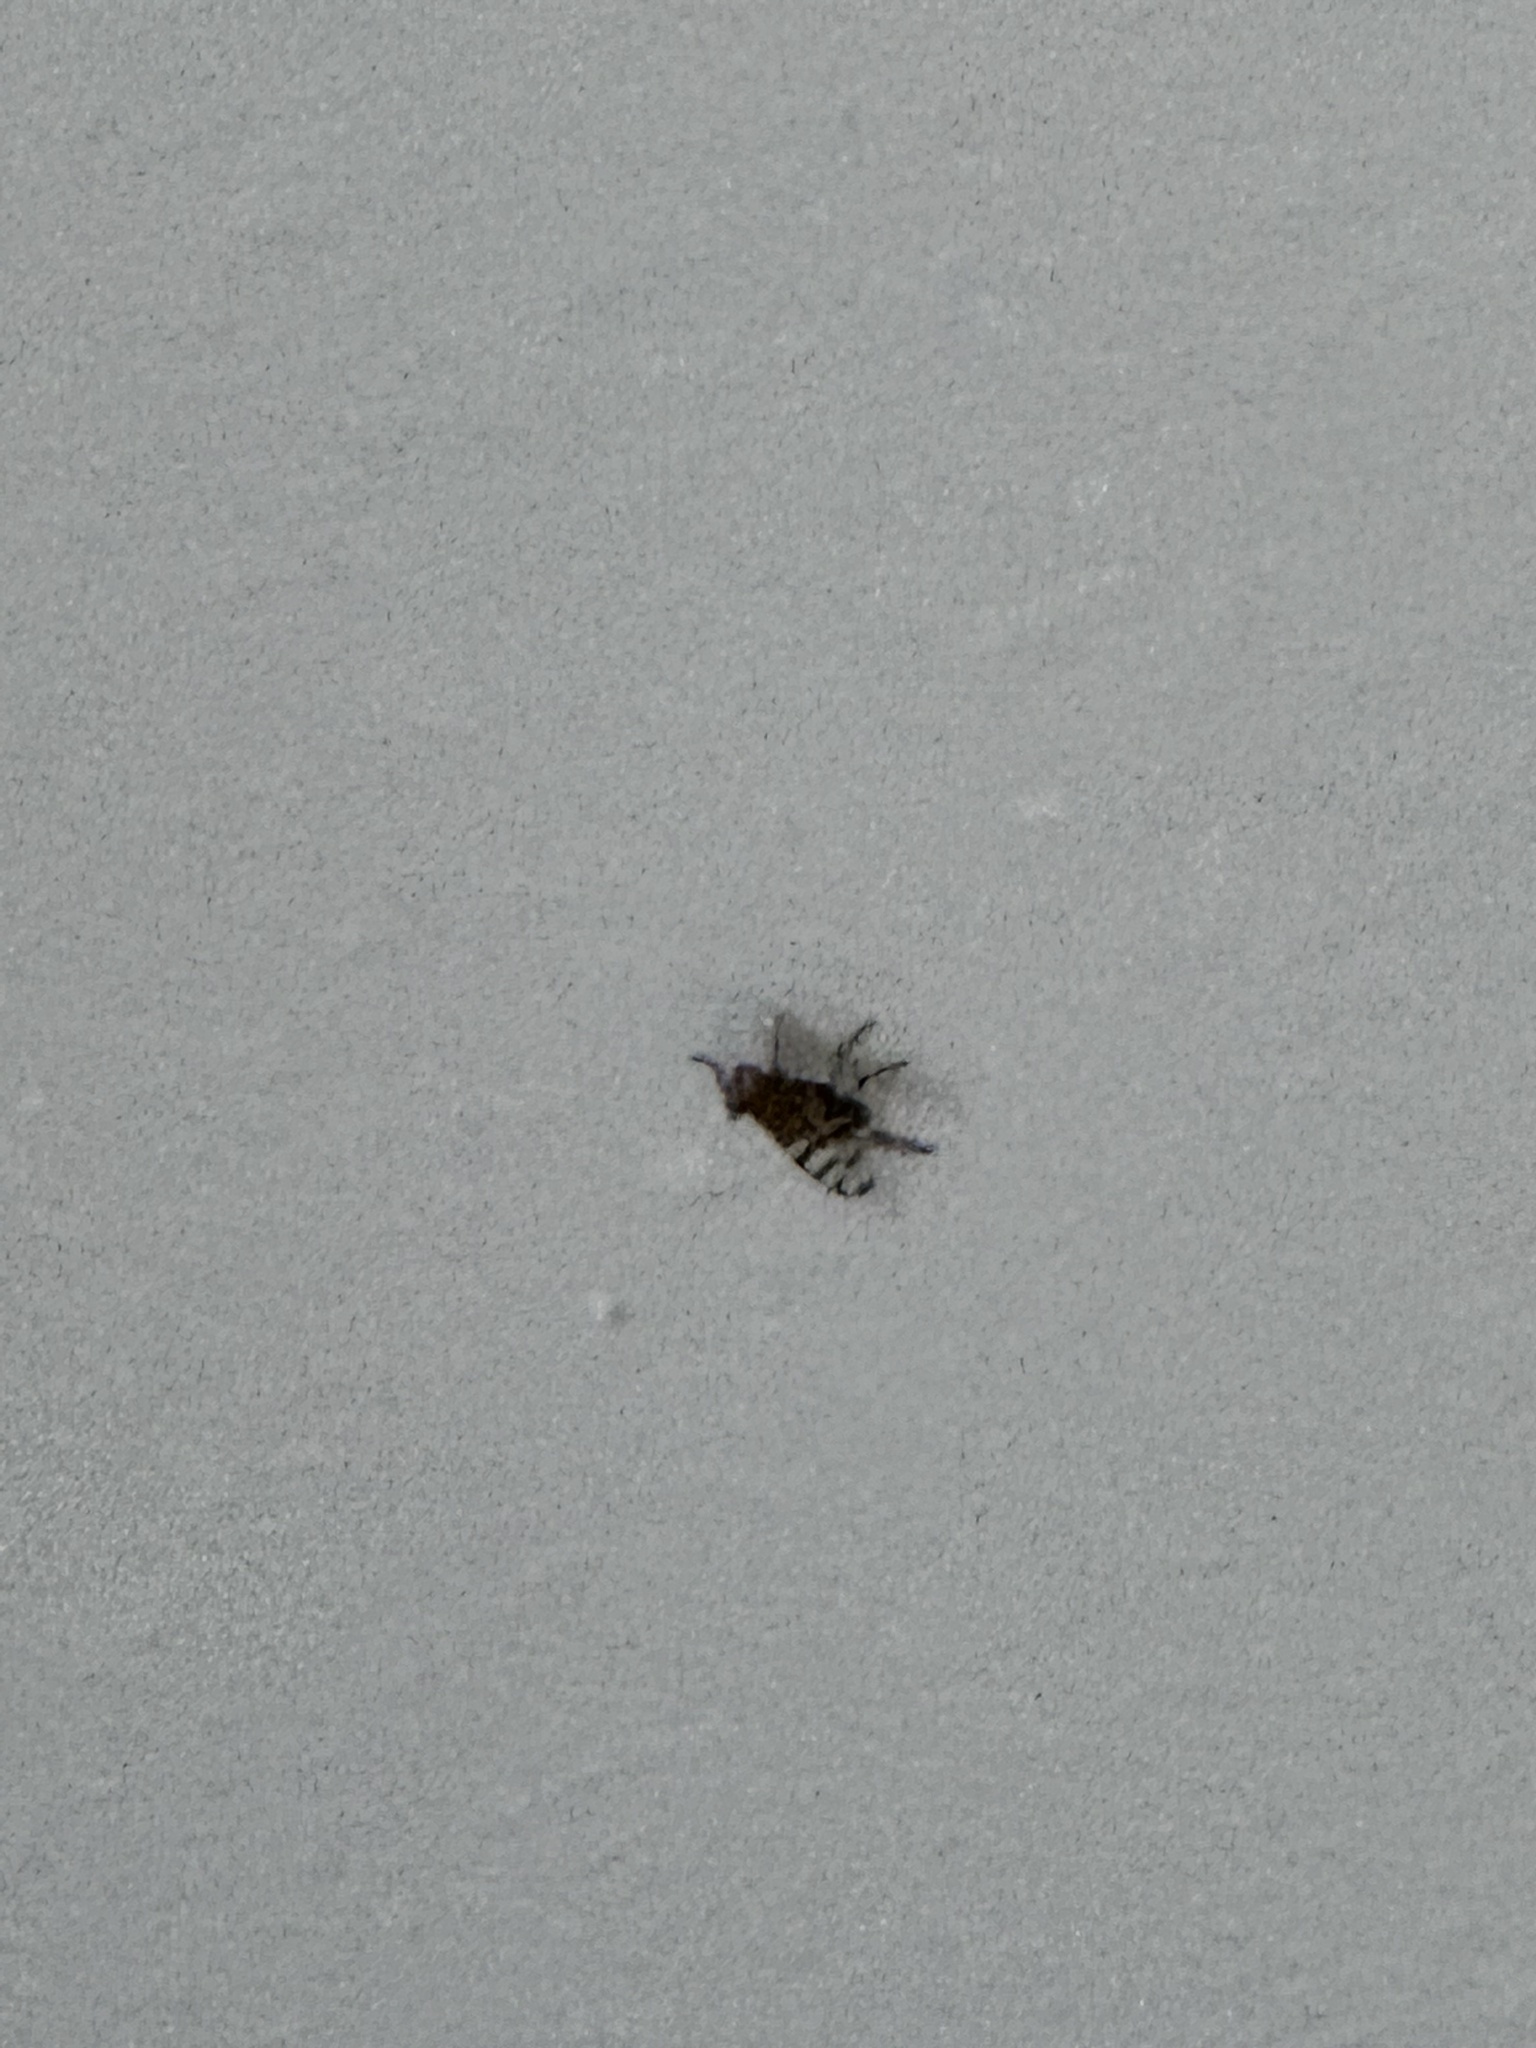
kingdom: Animalia
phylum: Arthropoda
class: Insecta
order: Diptera
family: Ulidiidae
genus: Ceroxys
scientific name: Ceroxys latiusculus
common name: Picture-winged fly
